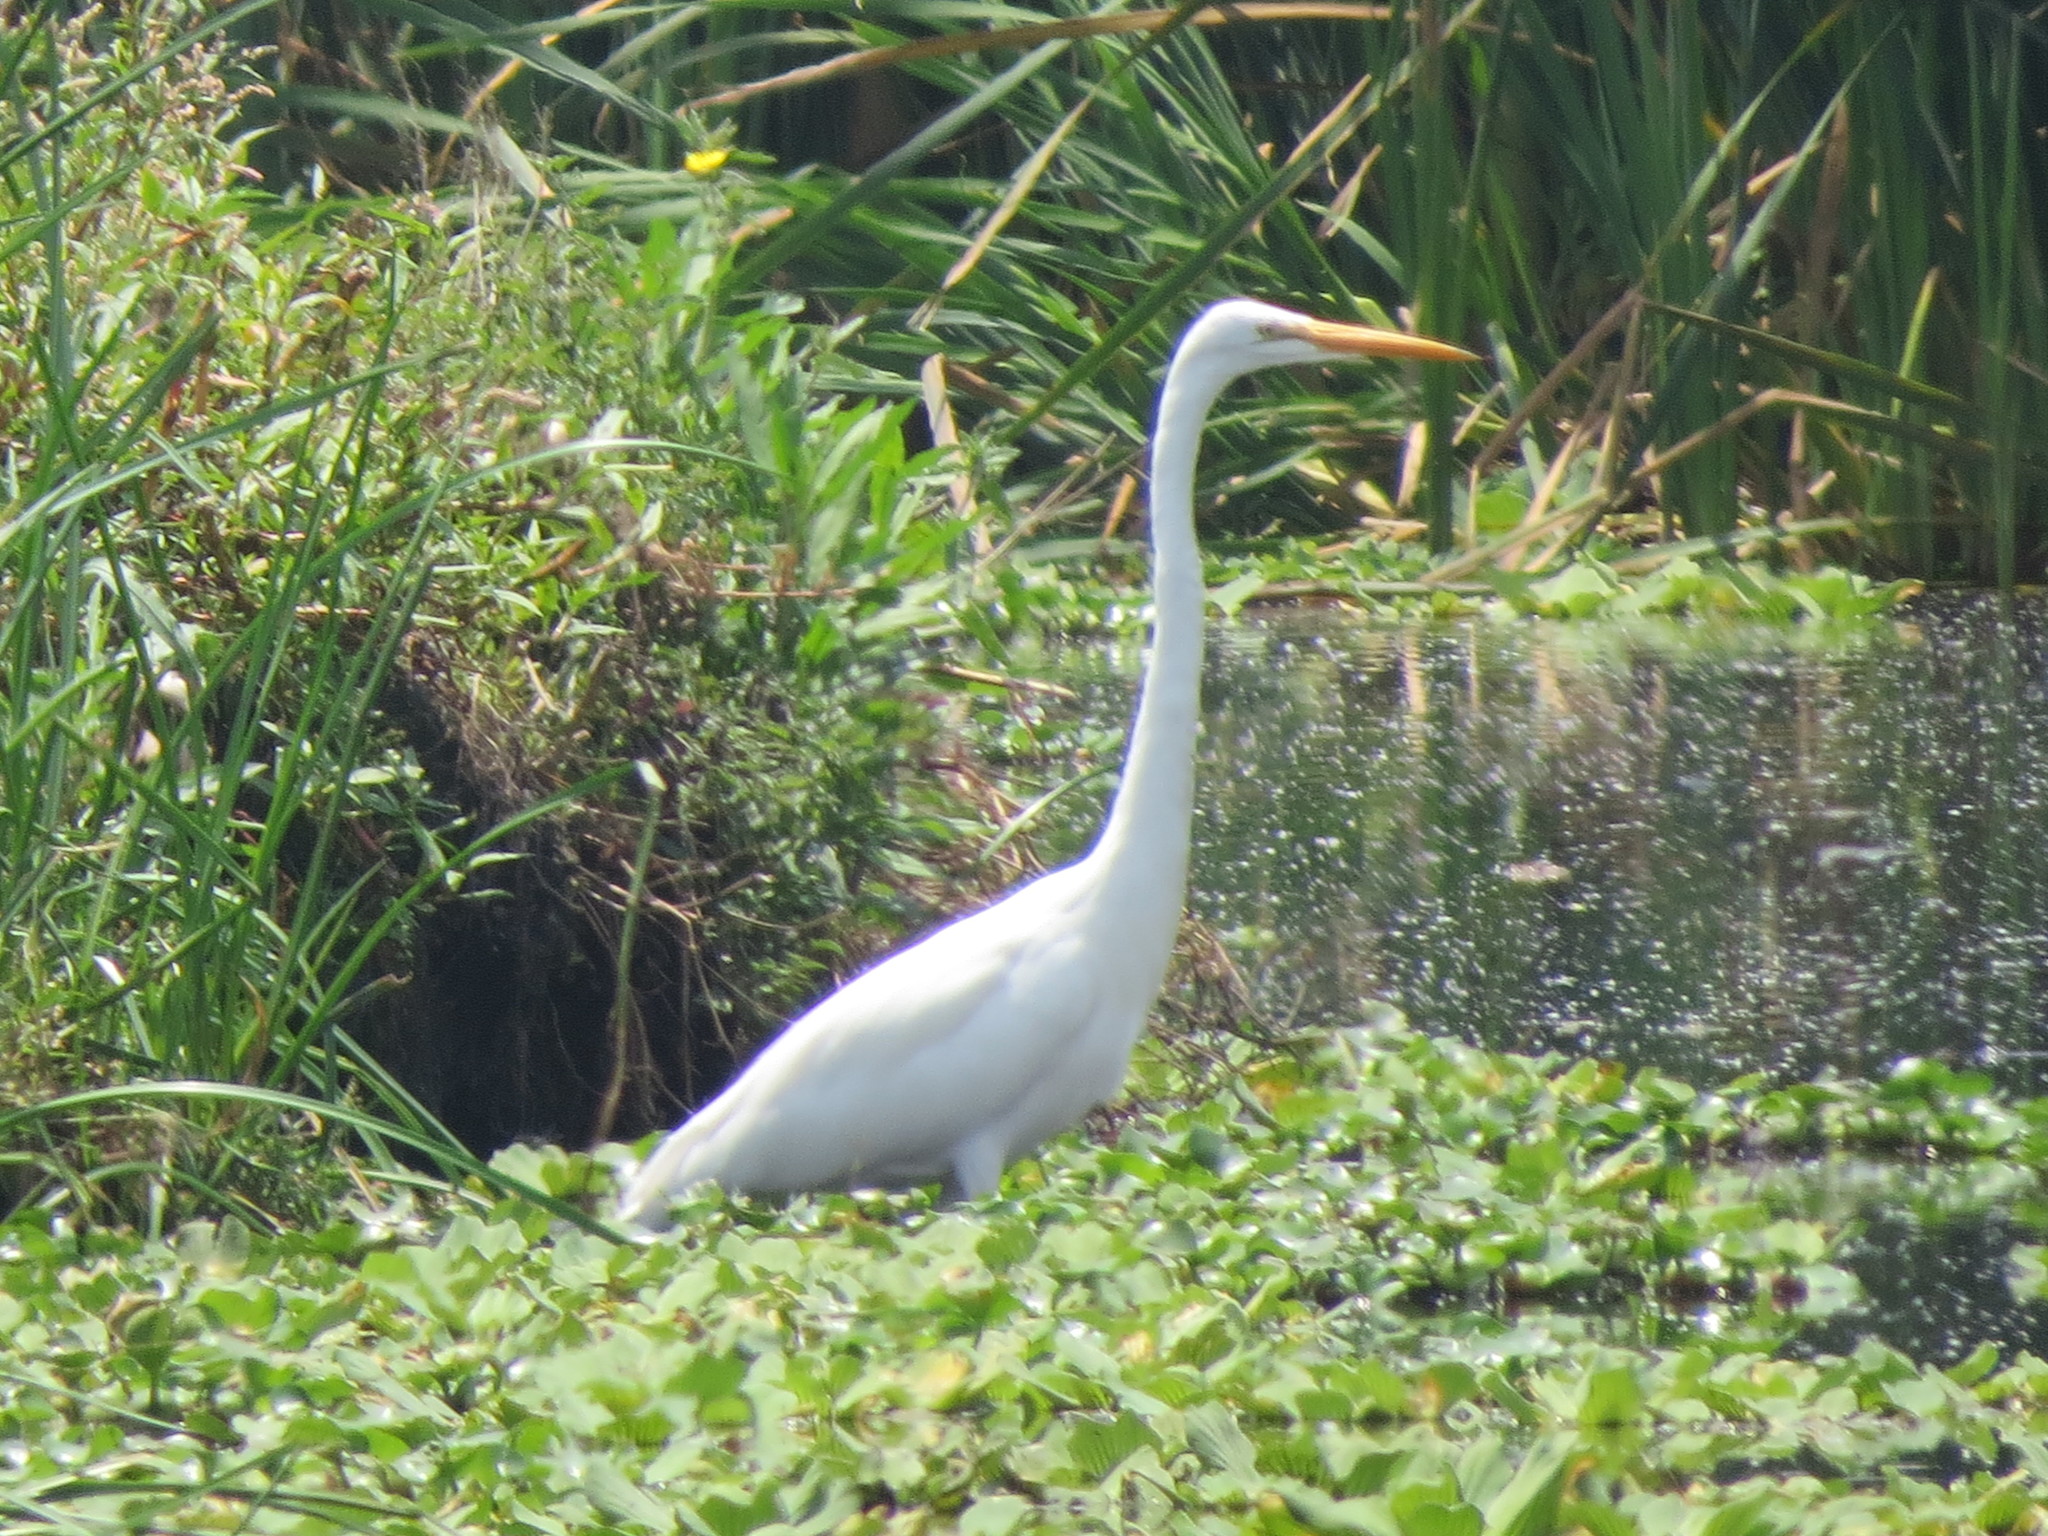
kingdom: Animalia
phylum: Chordata
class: Aves
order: Pelecaniformes
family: Ardeidae
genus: Ardea
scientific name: Ardea alba
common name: Great egret
